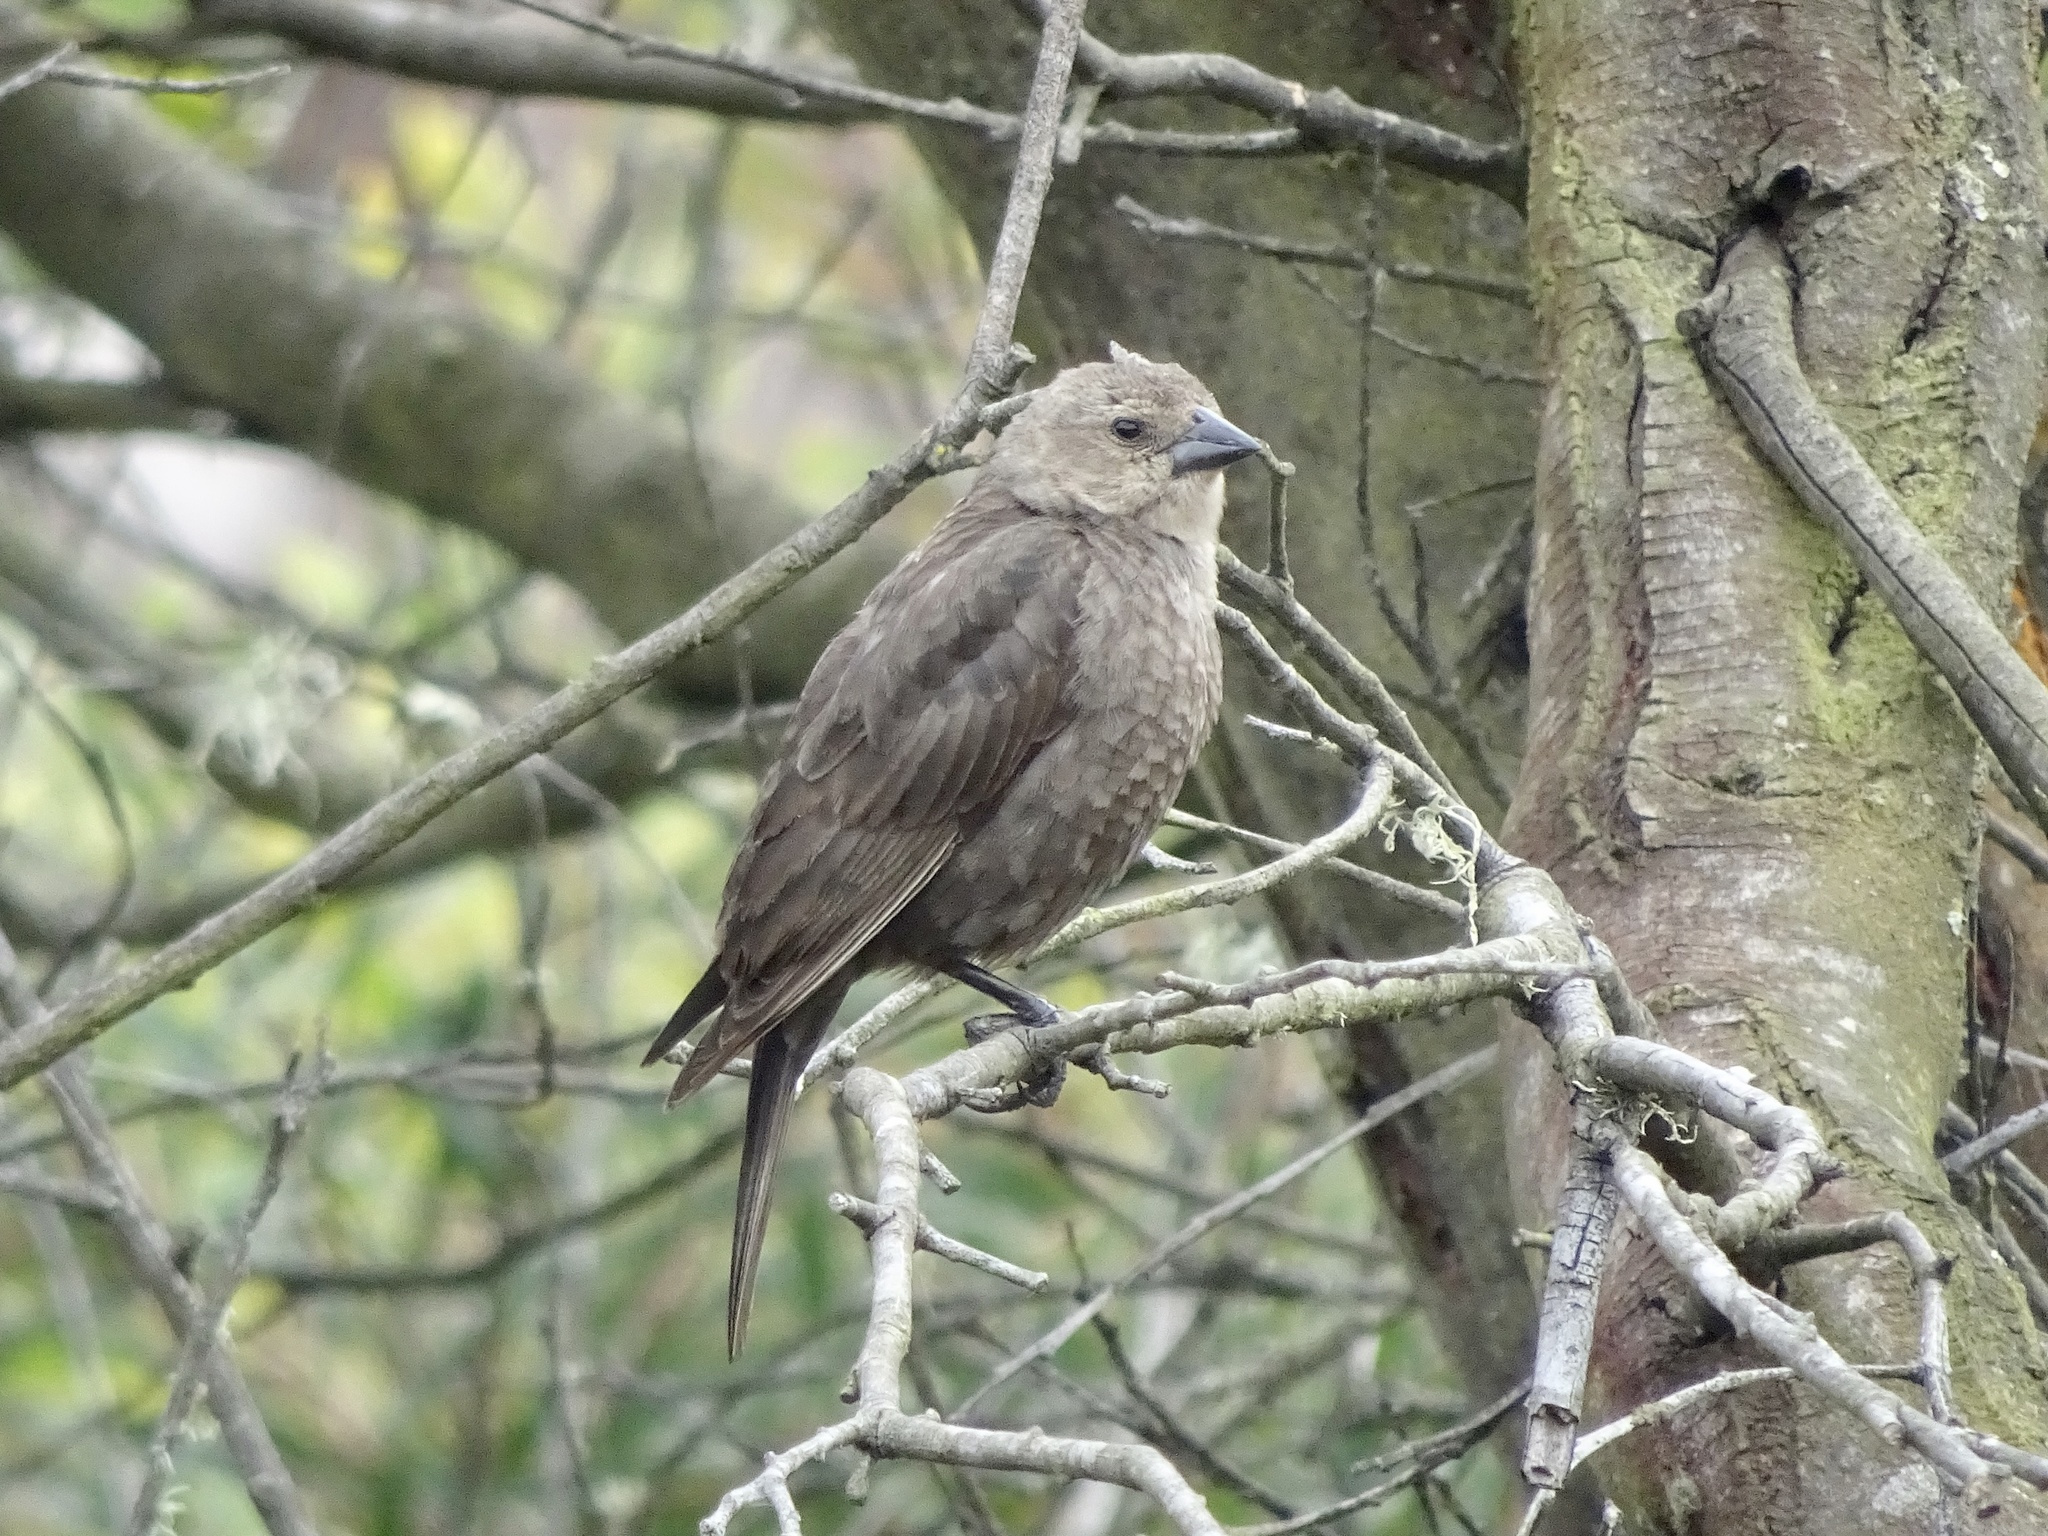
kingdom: Animalia
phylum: Chordata
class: Aves
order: Passeriformes
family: Icteridae
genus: Molothrus
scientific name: Molothrus ater
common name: Brown-headed cowbird
